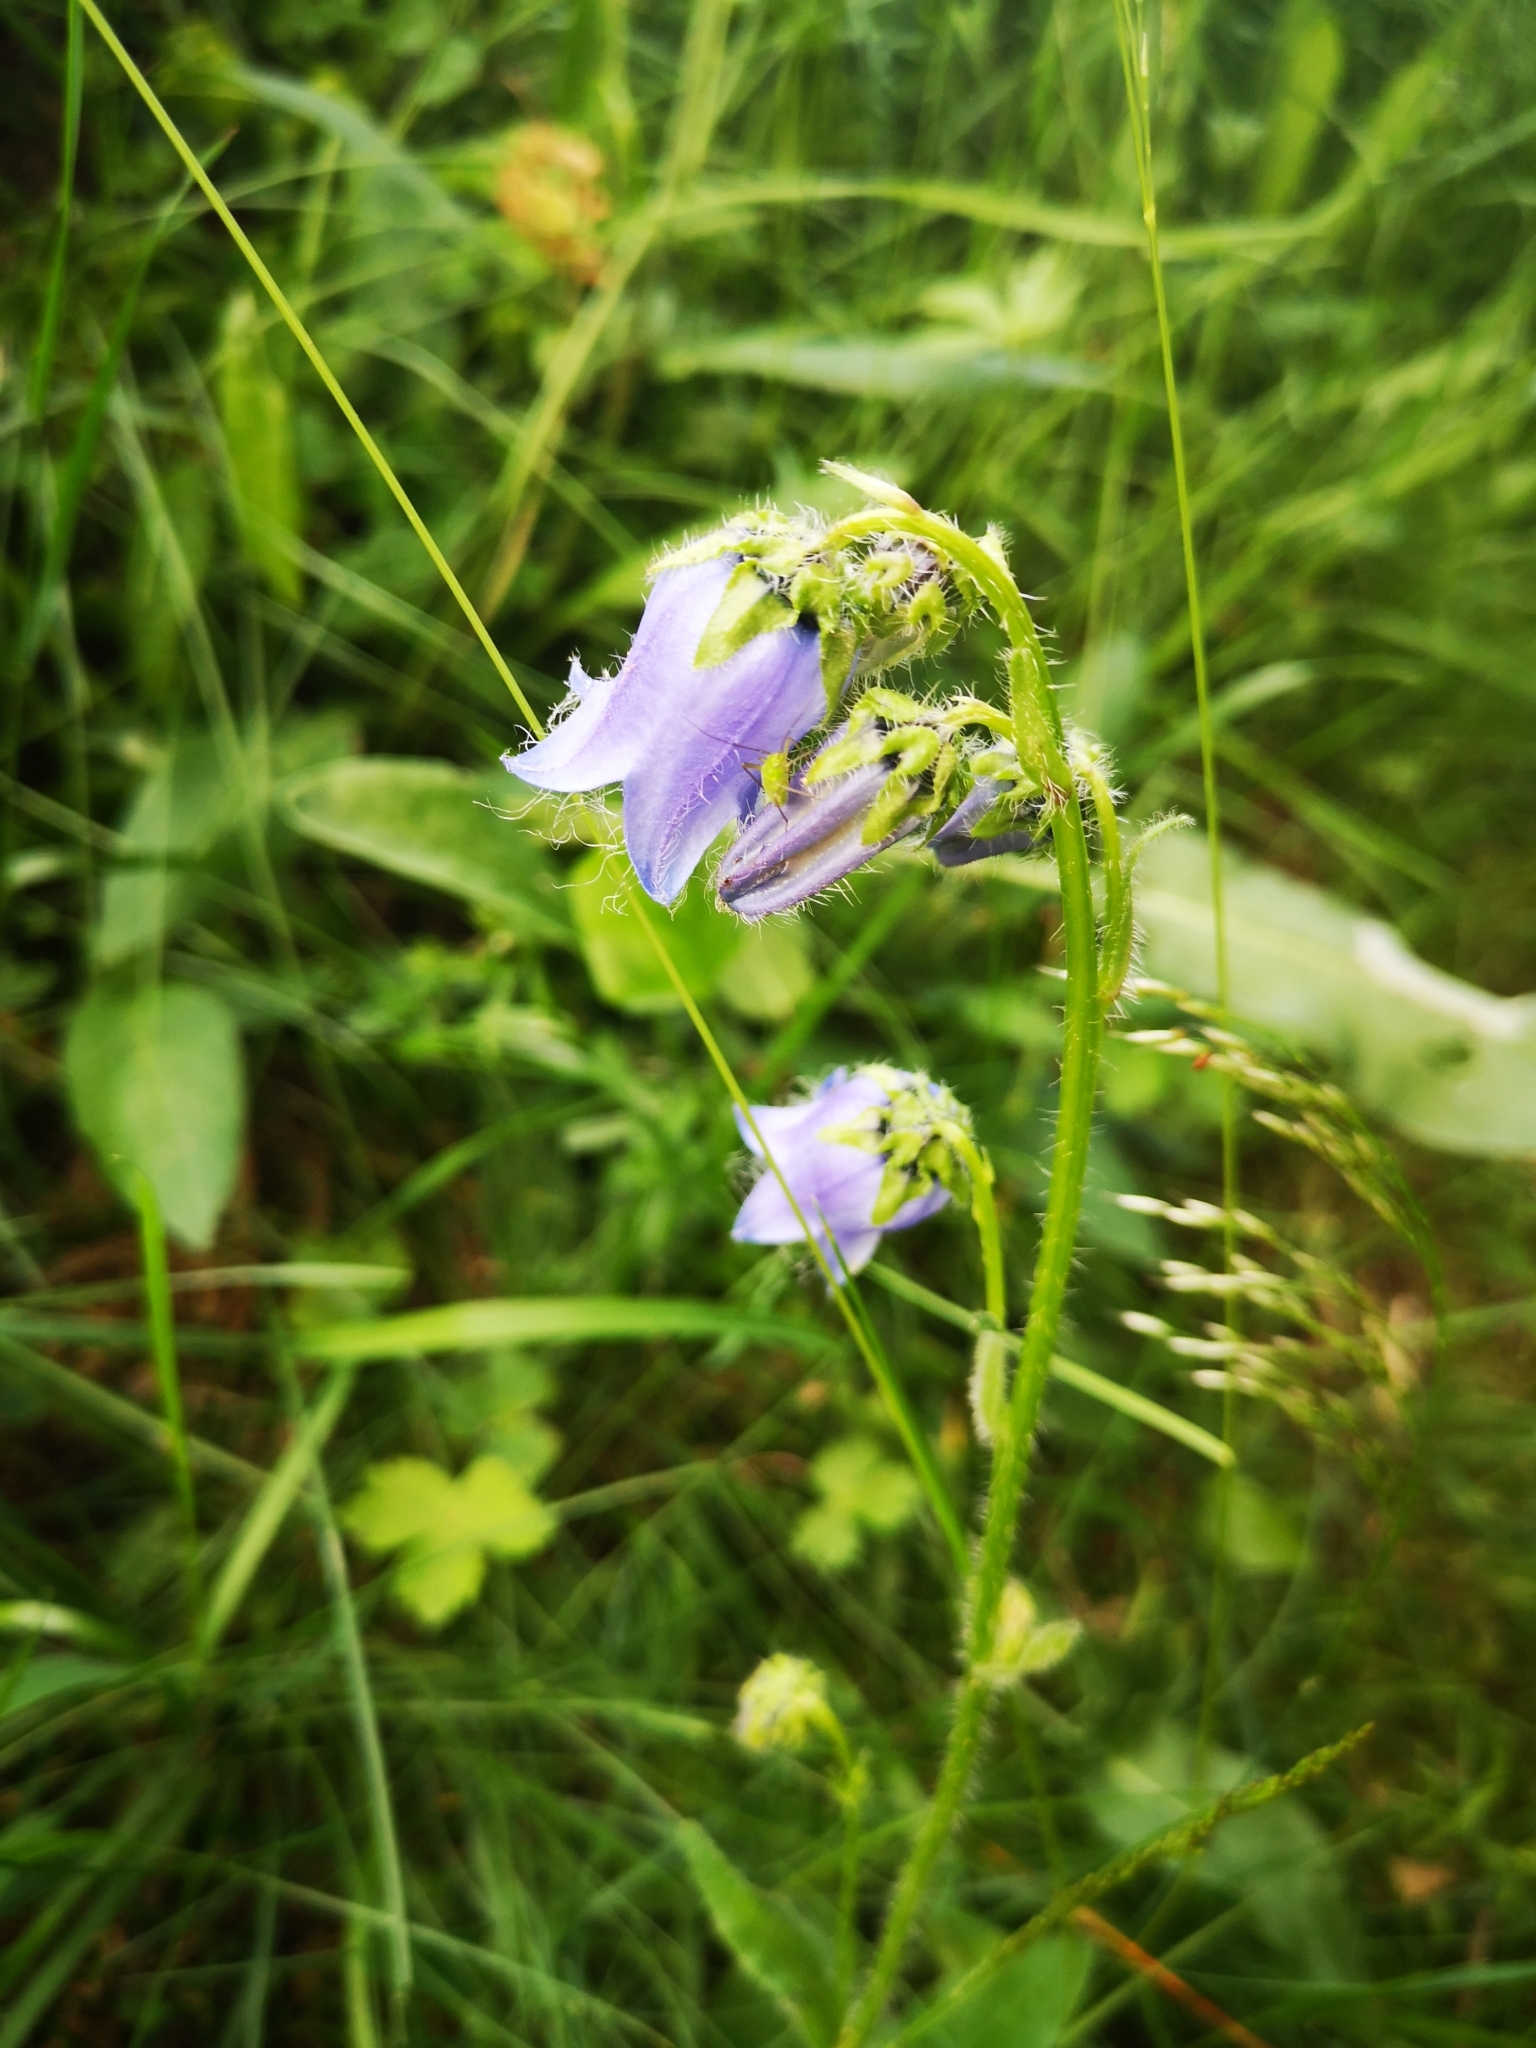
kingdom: Plantae
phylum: Tracheophyta
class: Magnoliopsida
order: Asterales
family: Campanulaceae
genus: Campanula
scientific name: Campanula barbata
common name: Bearded bellflower
